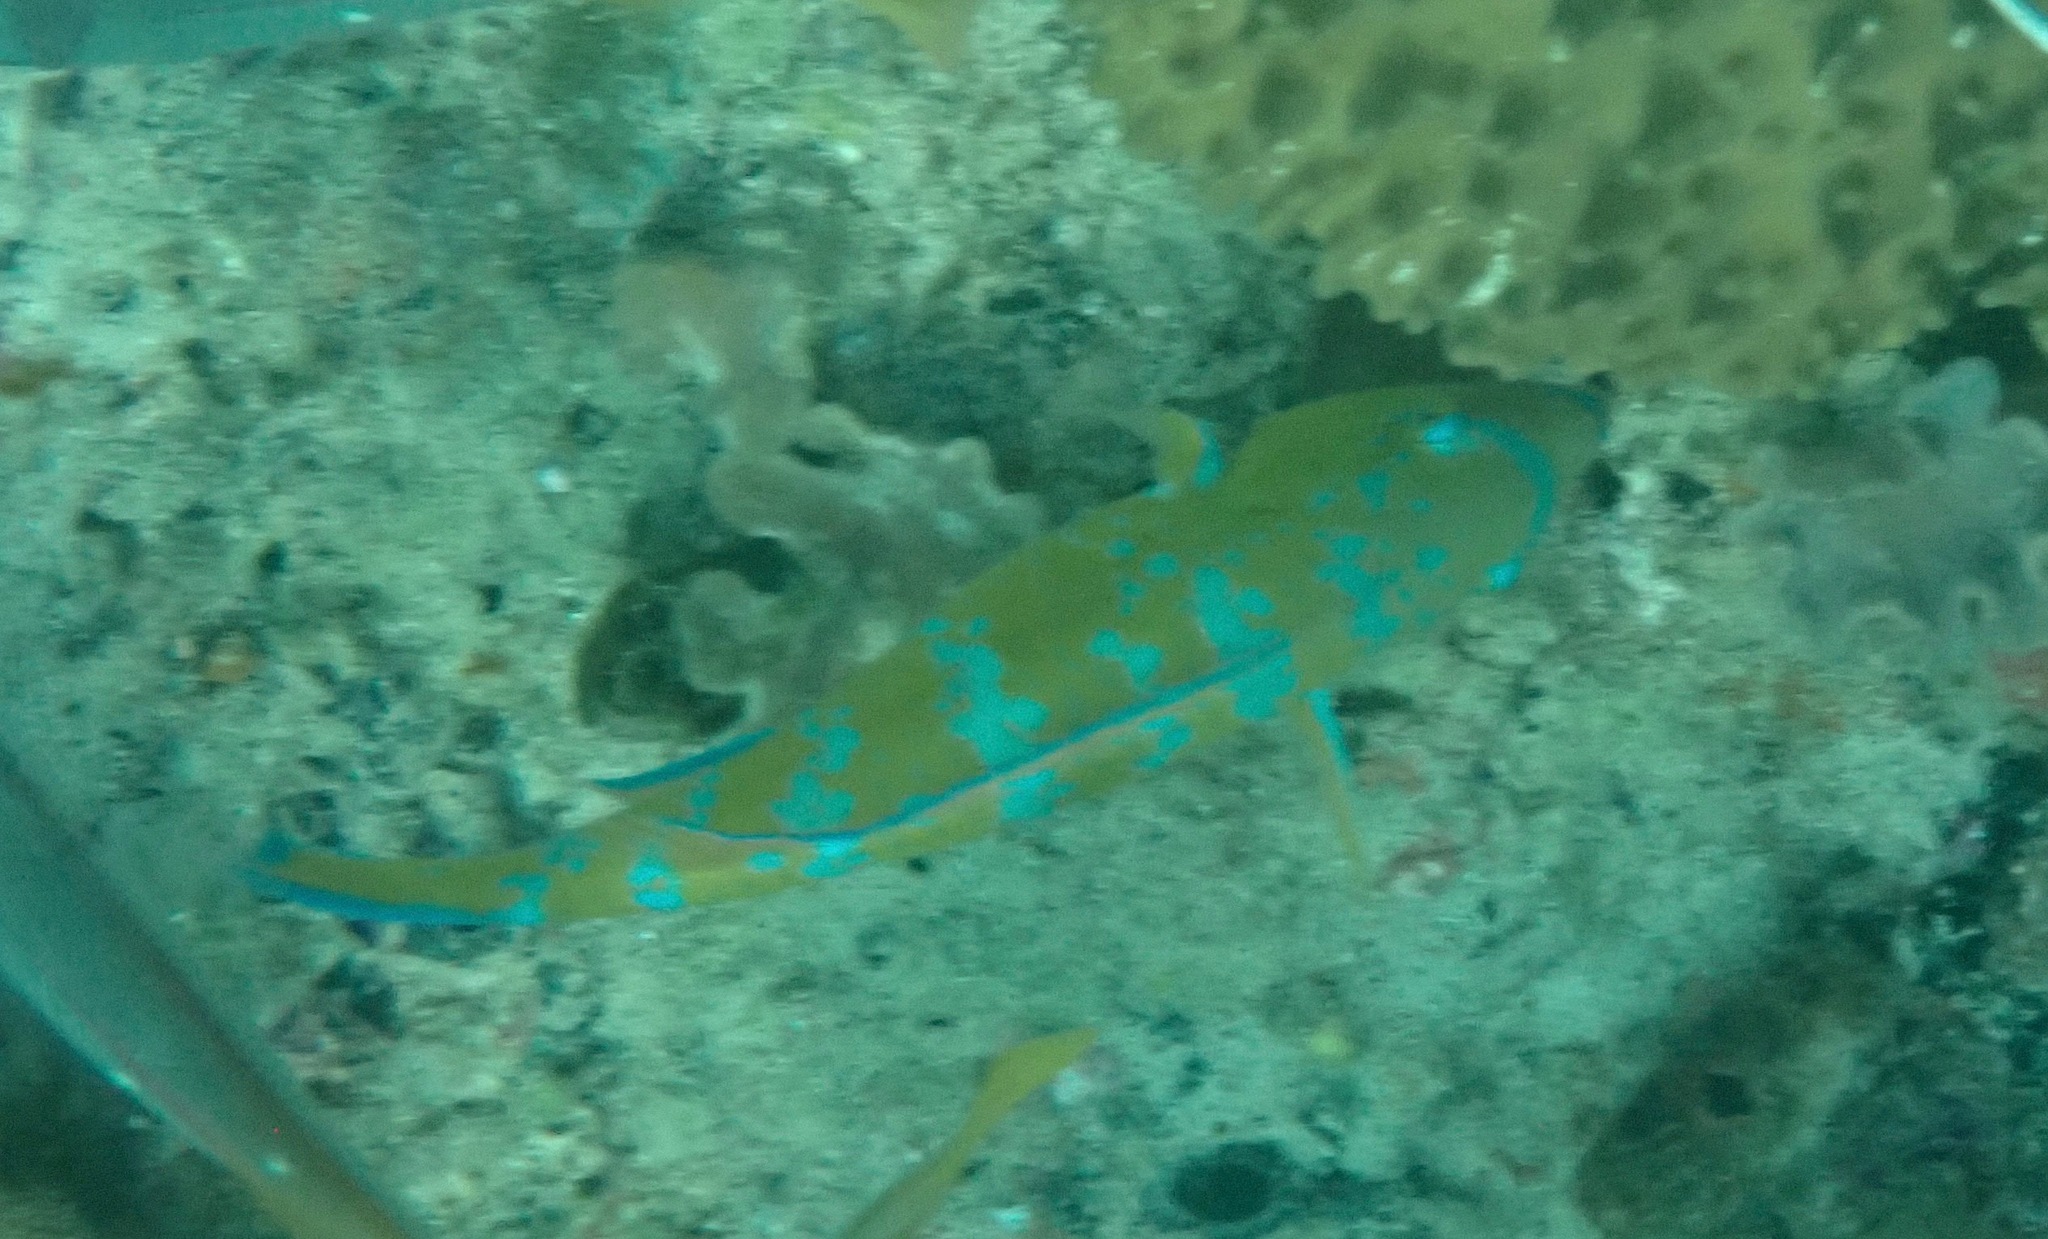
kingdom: Animalia
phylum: Chordata
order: Perciformes
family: Scaridae
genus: Scarus
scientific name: Scarus ghobban
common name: Blue-barred parrotfish
